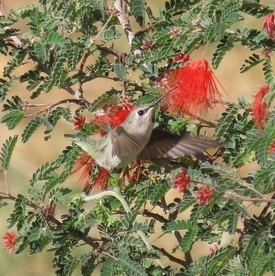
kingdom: Animalia
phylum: Chordata
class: Aves
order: Apodiformes
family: Trochilidae
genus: Calypte
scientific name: Calypte costae
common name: Costa's hummingbird
